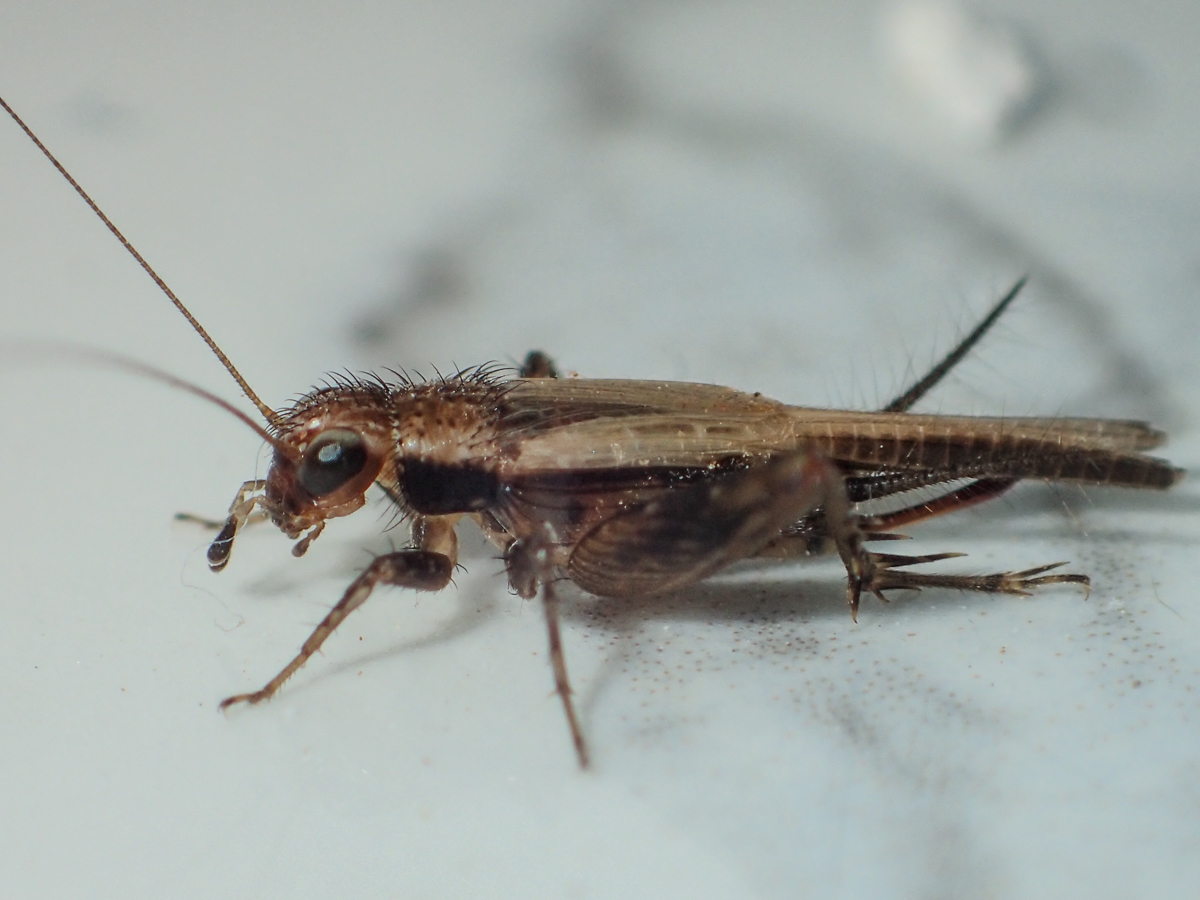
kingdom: Animalia
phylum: Arthropoda
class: Insecta
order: Orthoptera
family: Trigonidiidae
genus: Polionemobius
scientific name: Polionemobius taprobanense
